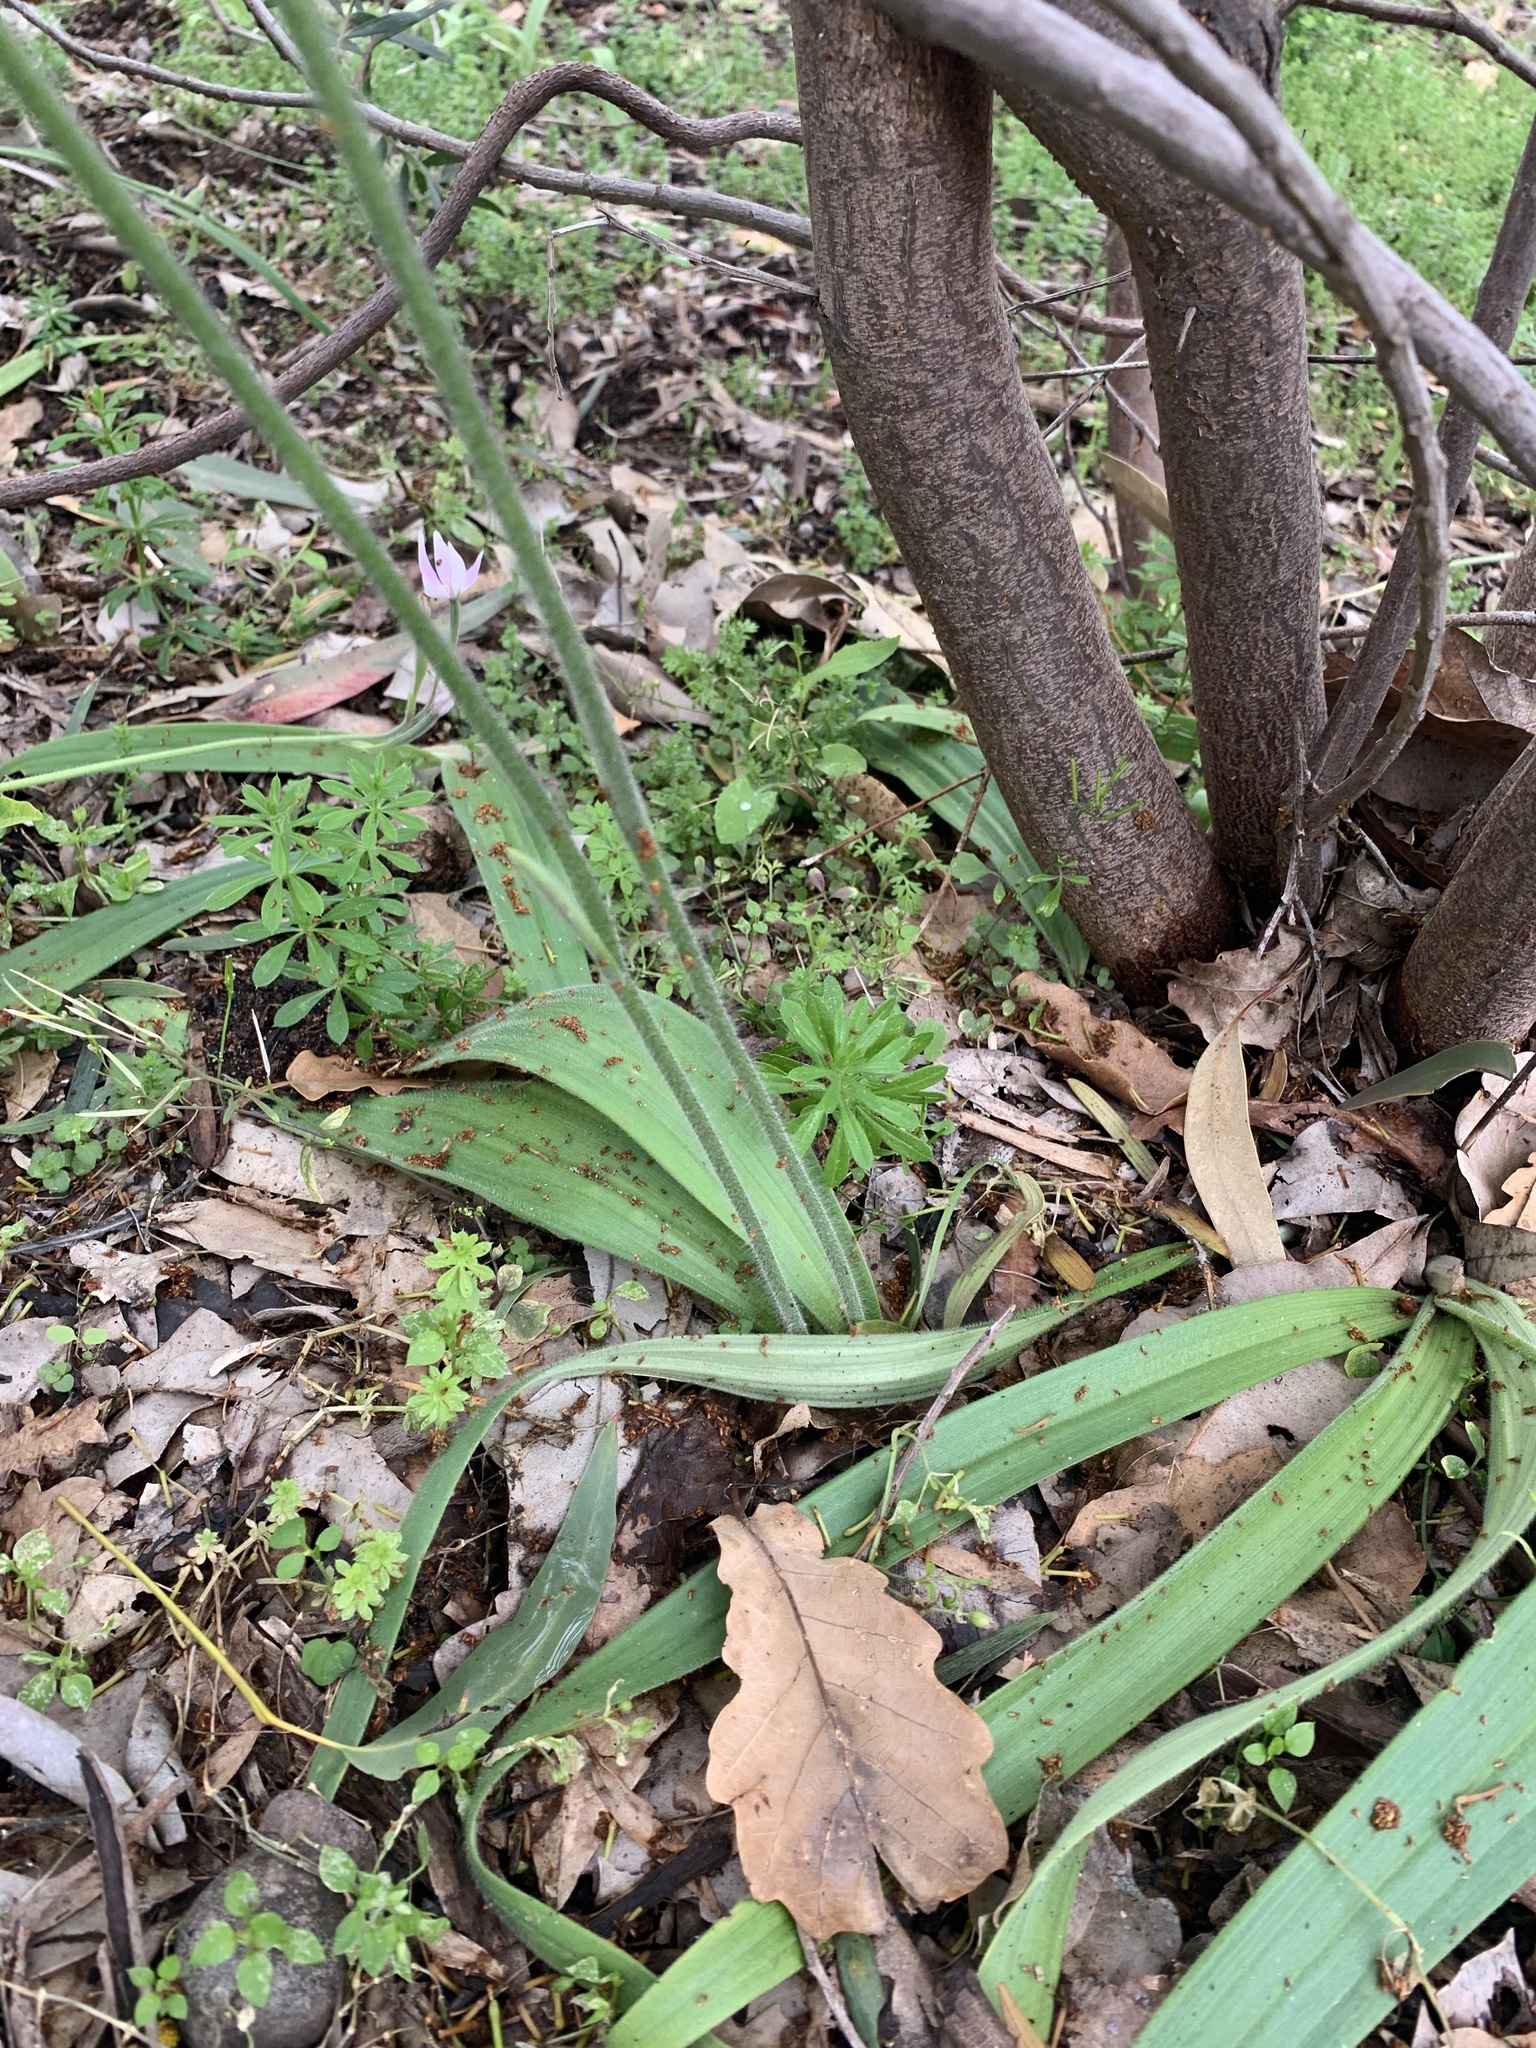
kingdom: Plantae
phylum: Tracheophyta
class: Liliopsida
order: Asparagales
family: Orchidaceae
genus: Caladenia
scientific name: Caladenia latifolia
